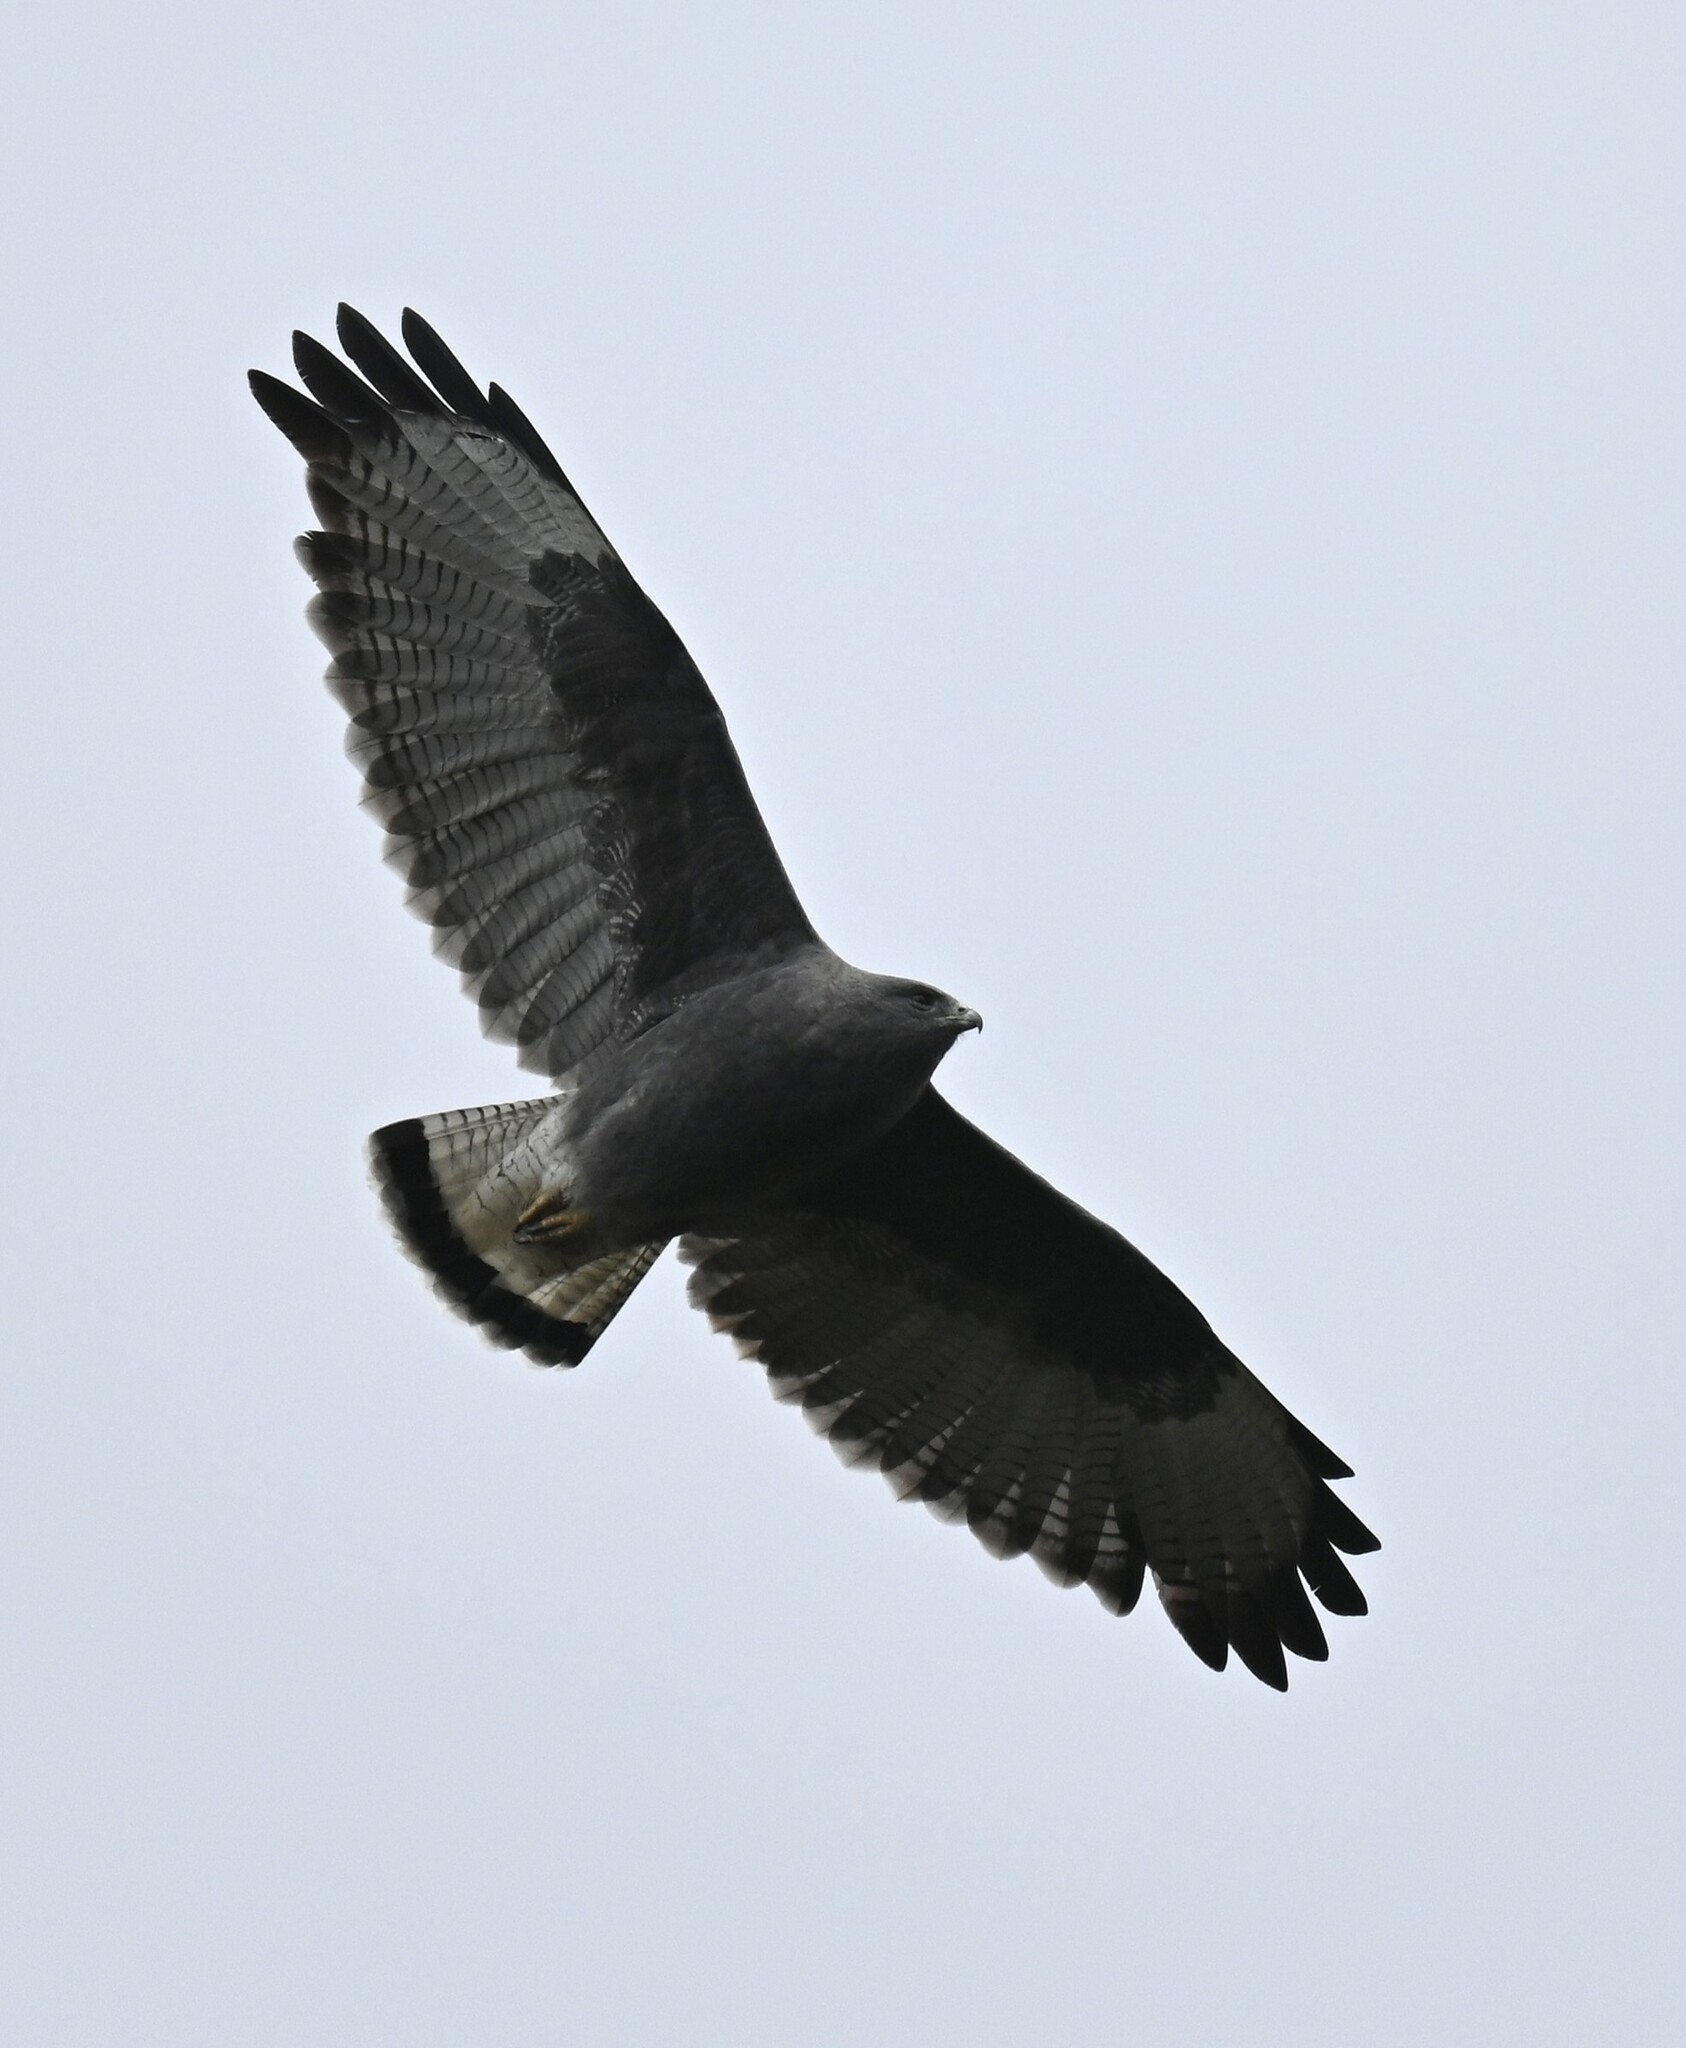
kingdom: Animalia
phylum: Chordata
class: Aves
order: Accipitriformes
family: Accipitridae
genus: Buteo
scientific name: Buteo polyosoma
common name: Variable hawk
